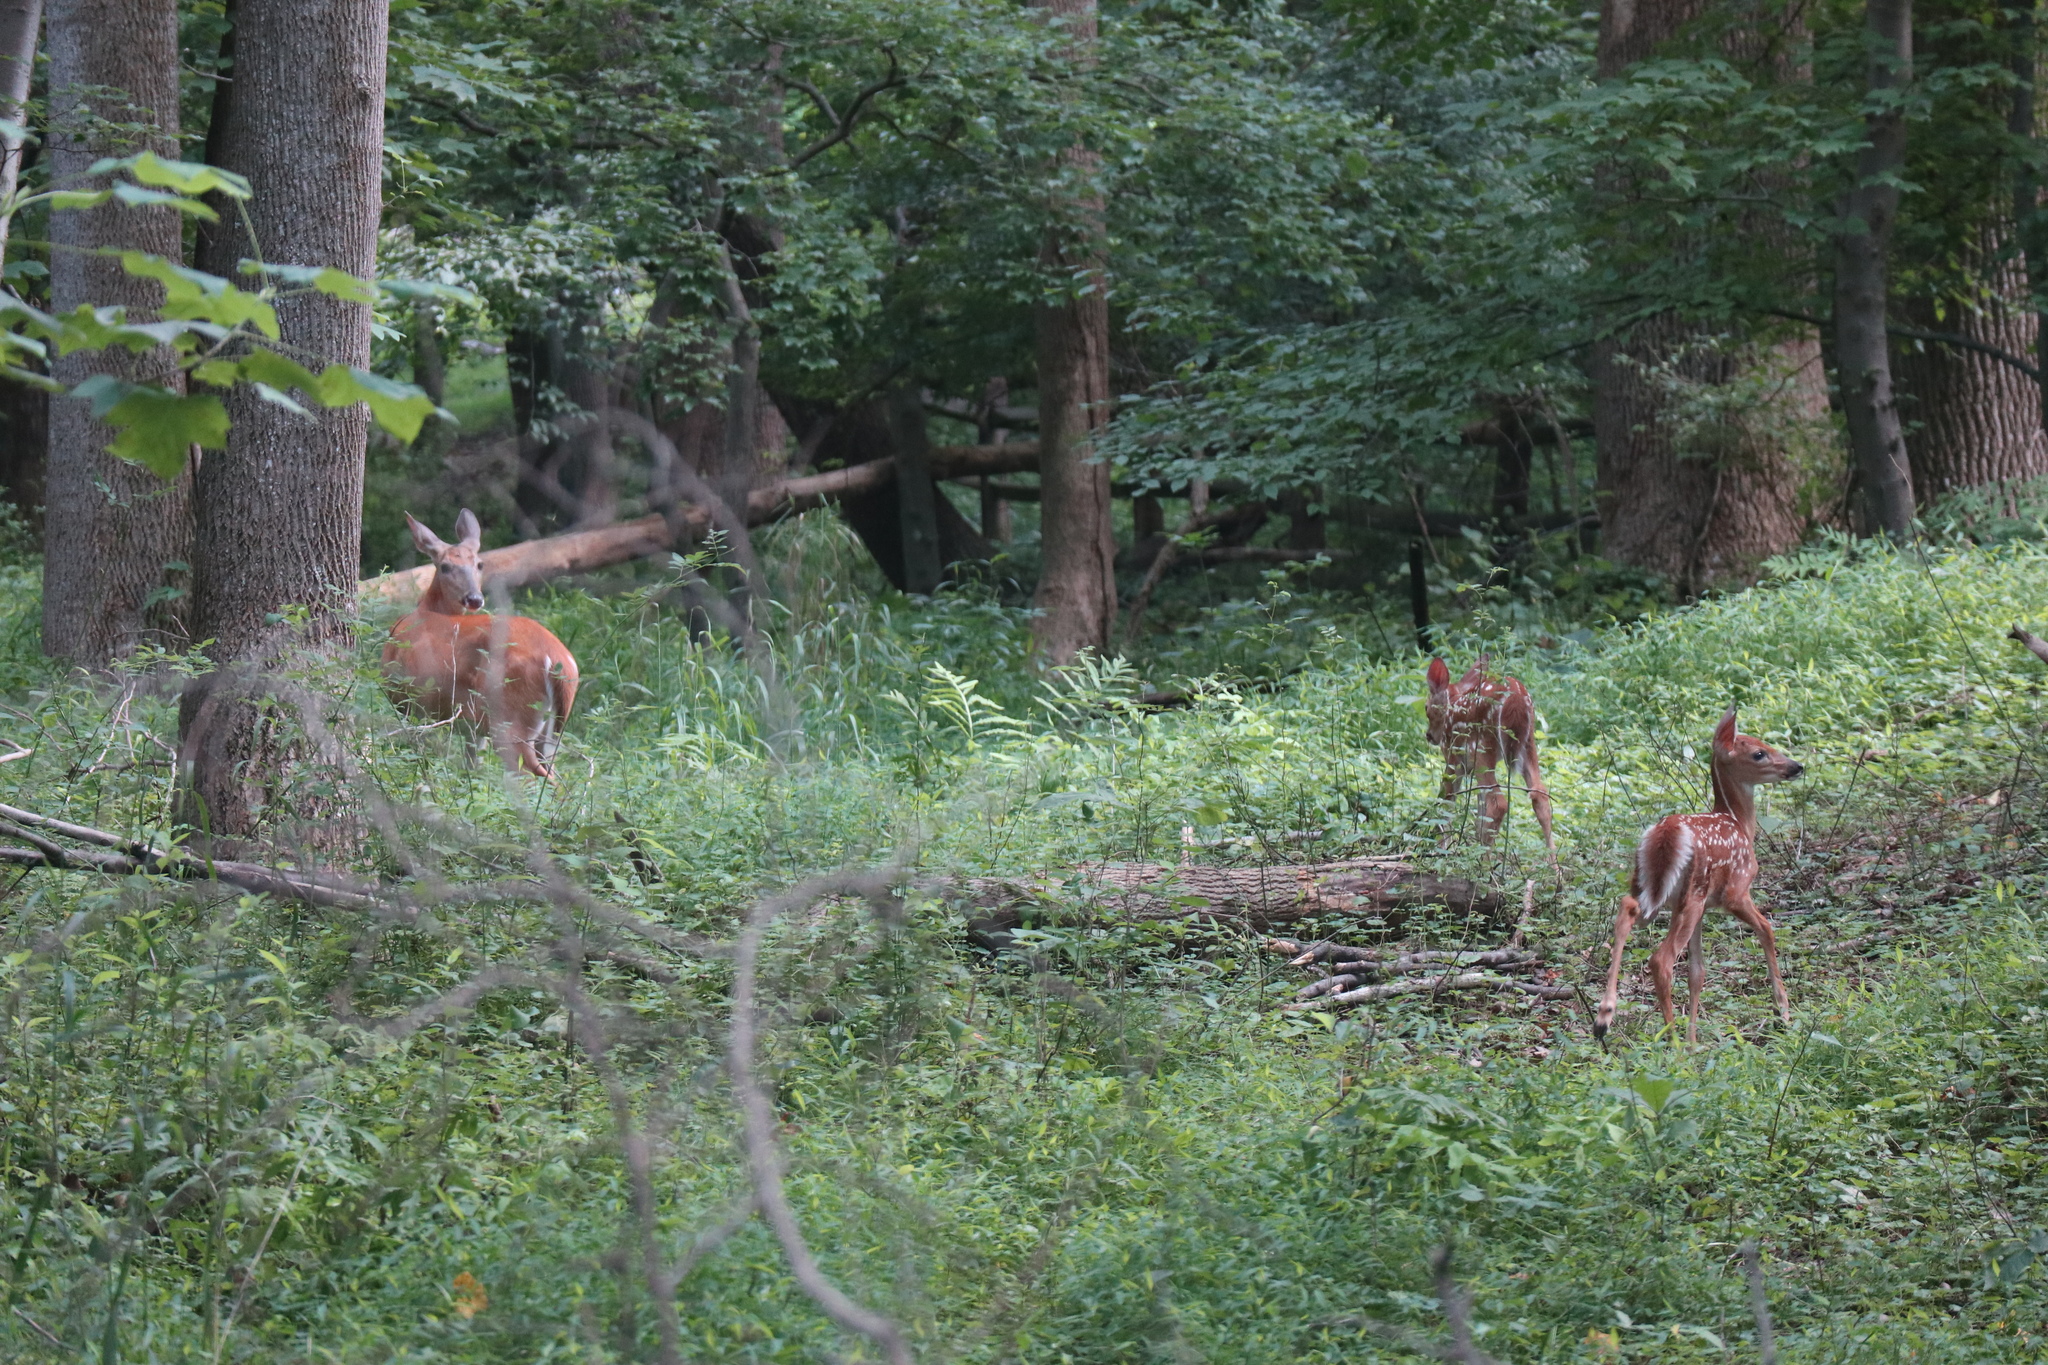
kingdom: Animalia
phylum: Chordata
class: Mammalia
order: Artiodactyla
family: Cervidae
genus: Odocoileus
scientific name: Odocoileus virginianus
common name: White-tailed deer
